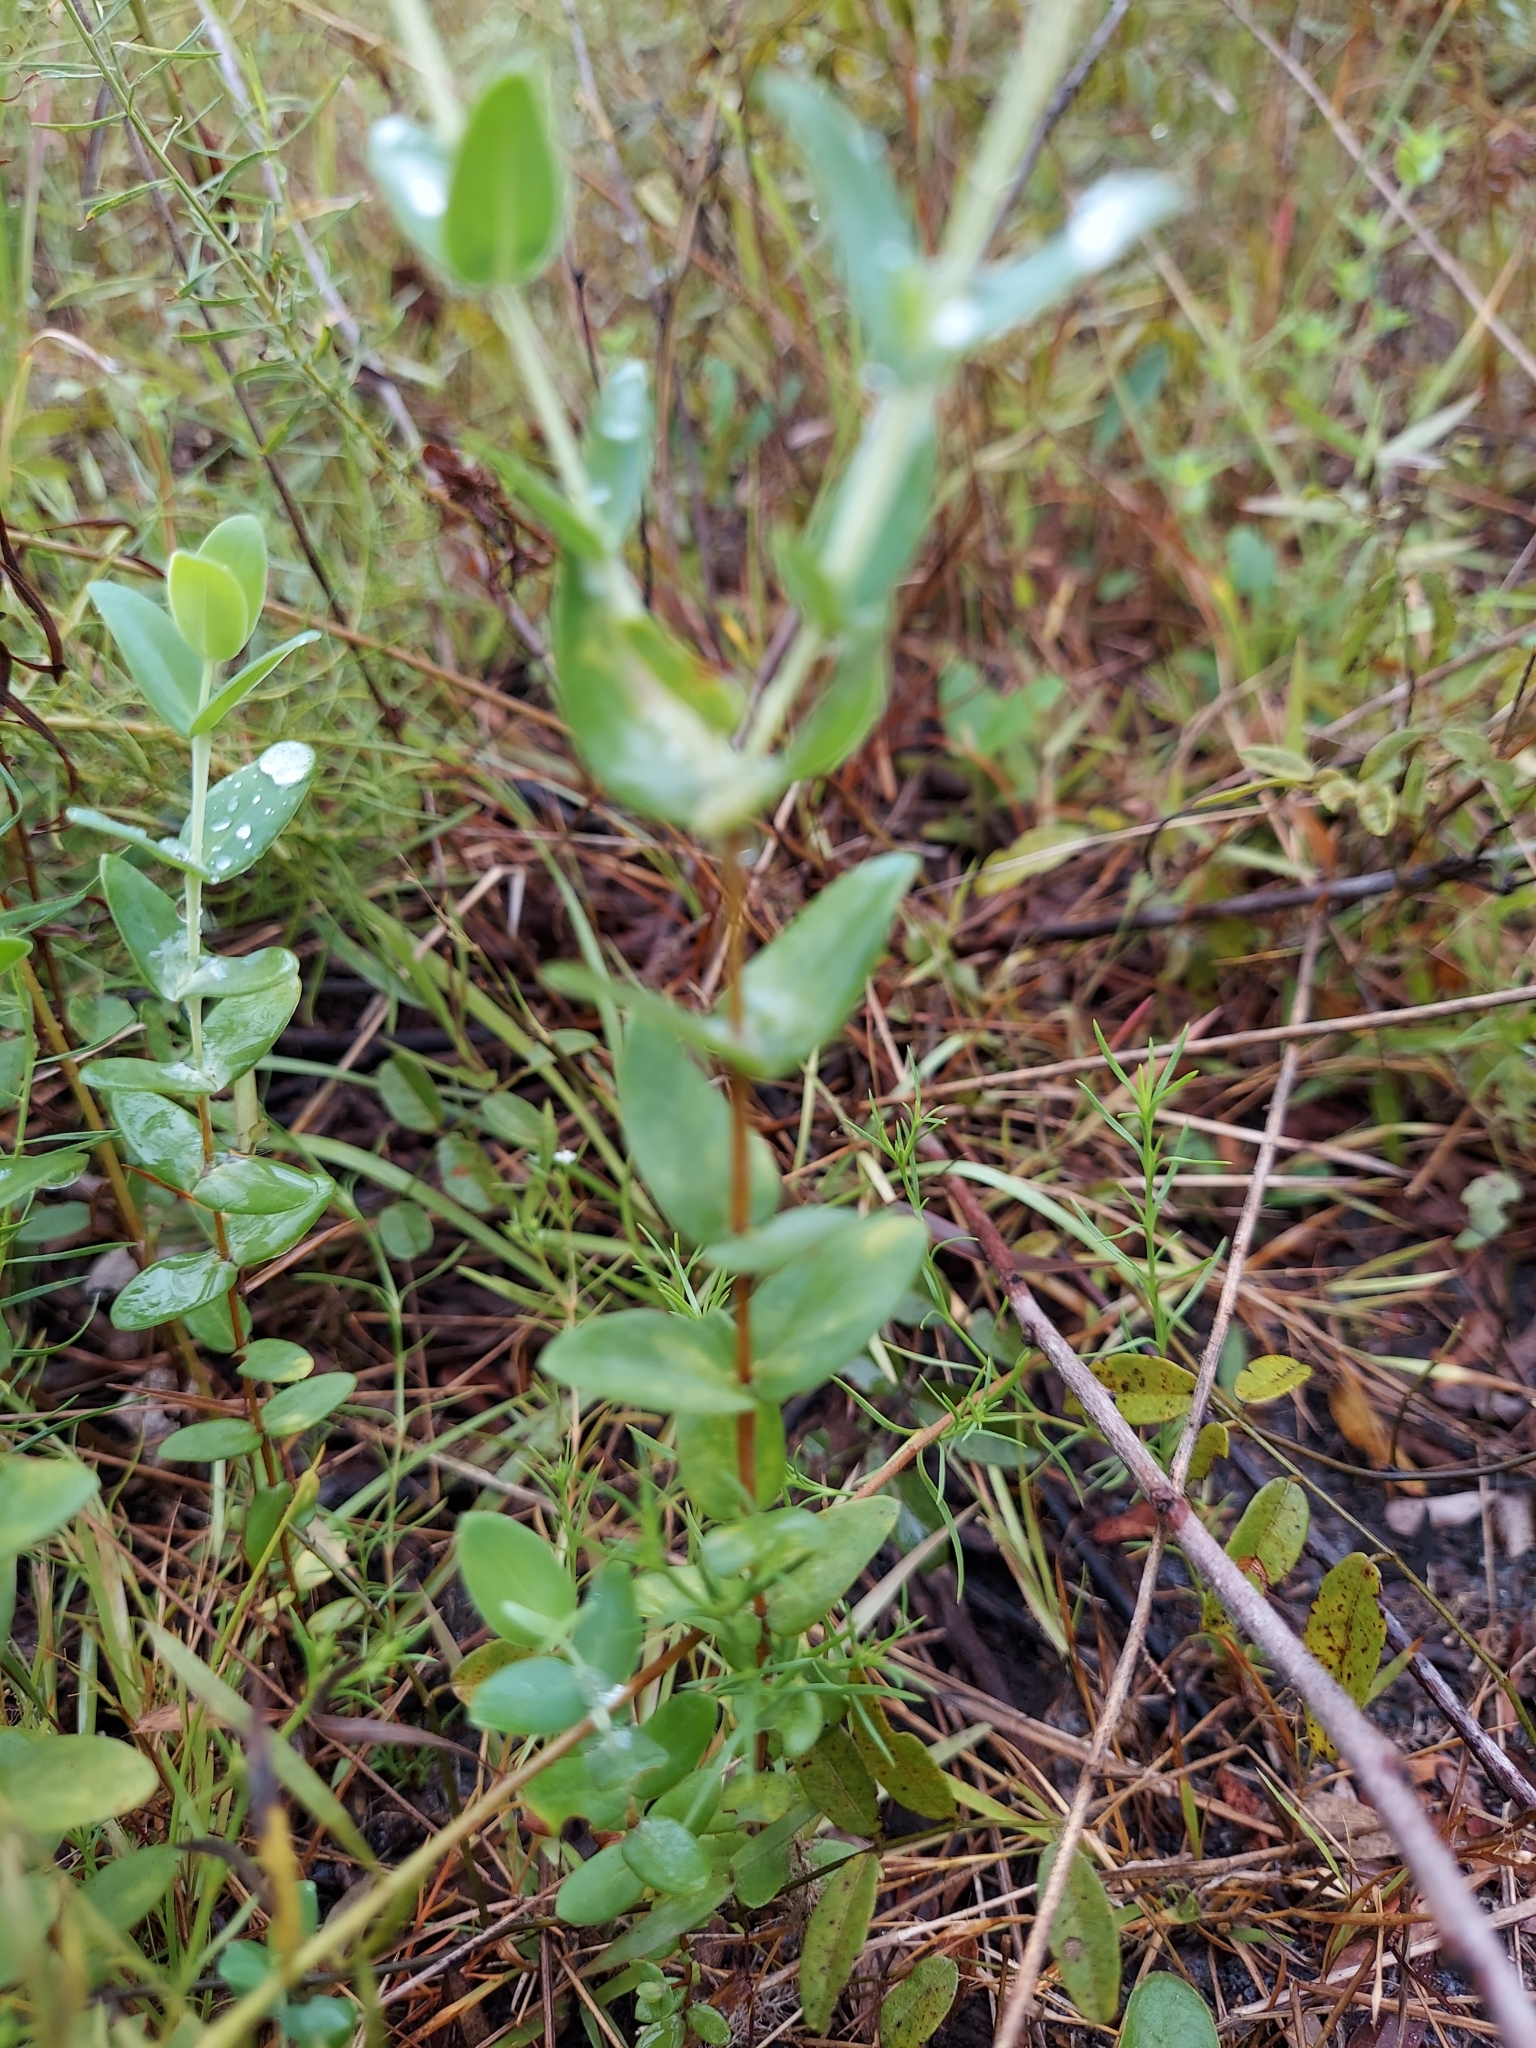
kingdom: Plantae
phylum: Tracheophyta
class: Magnoliopsida
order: Malpighiales
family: Hypericaceae
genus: Hypericum
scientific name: Hypericum tetrapetalum
